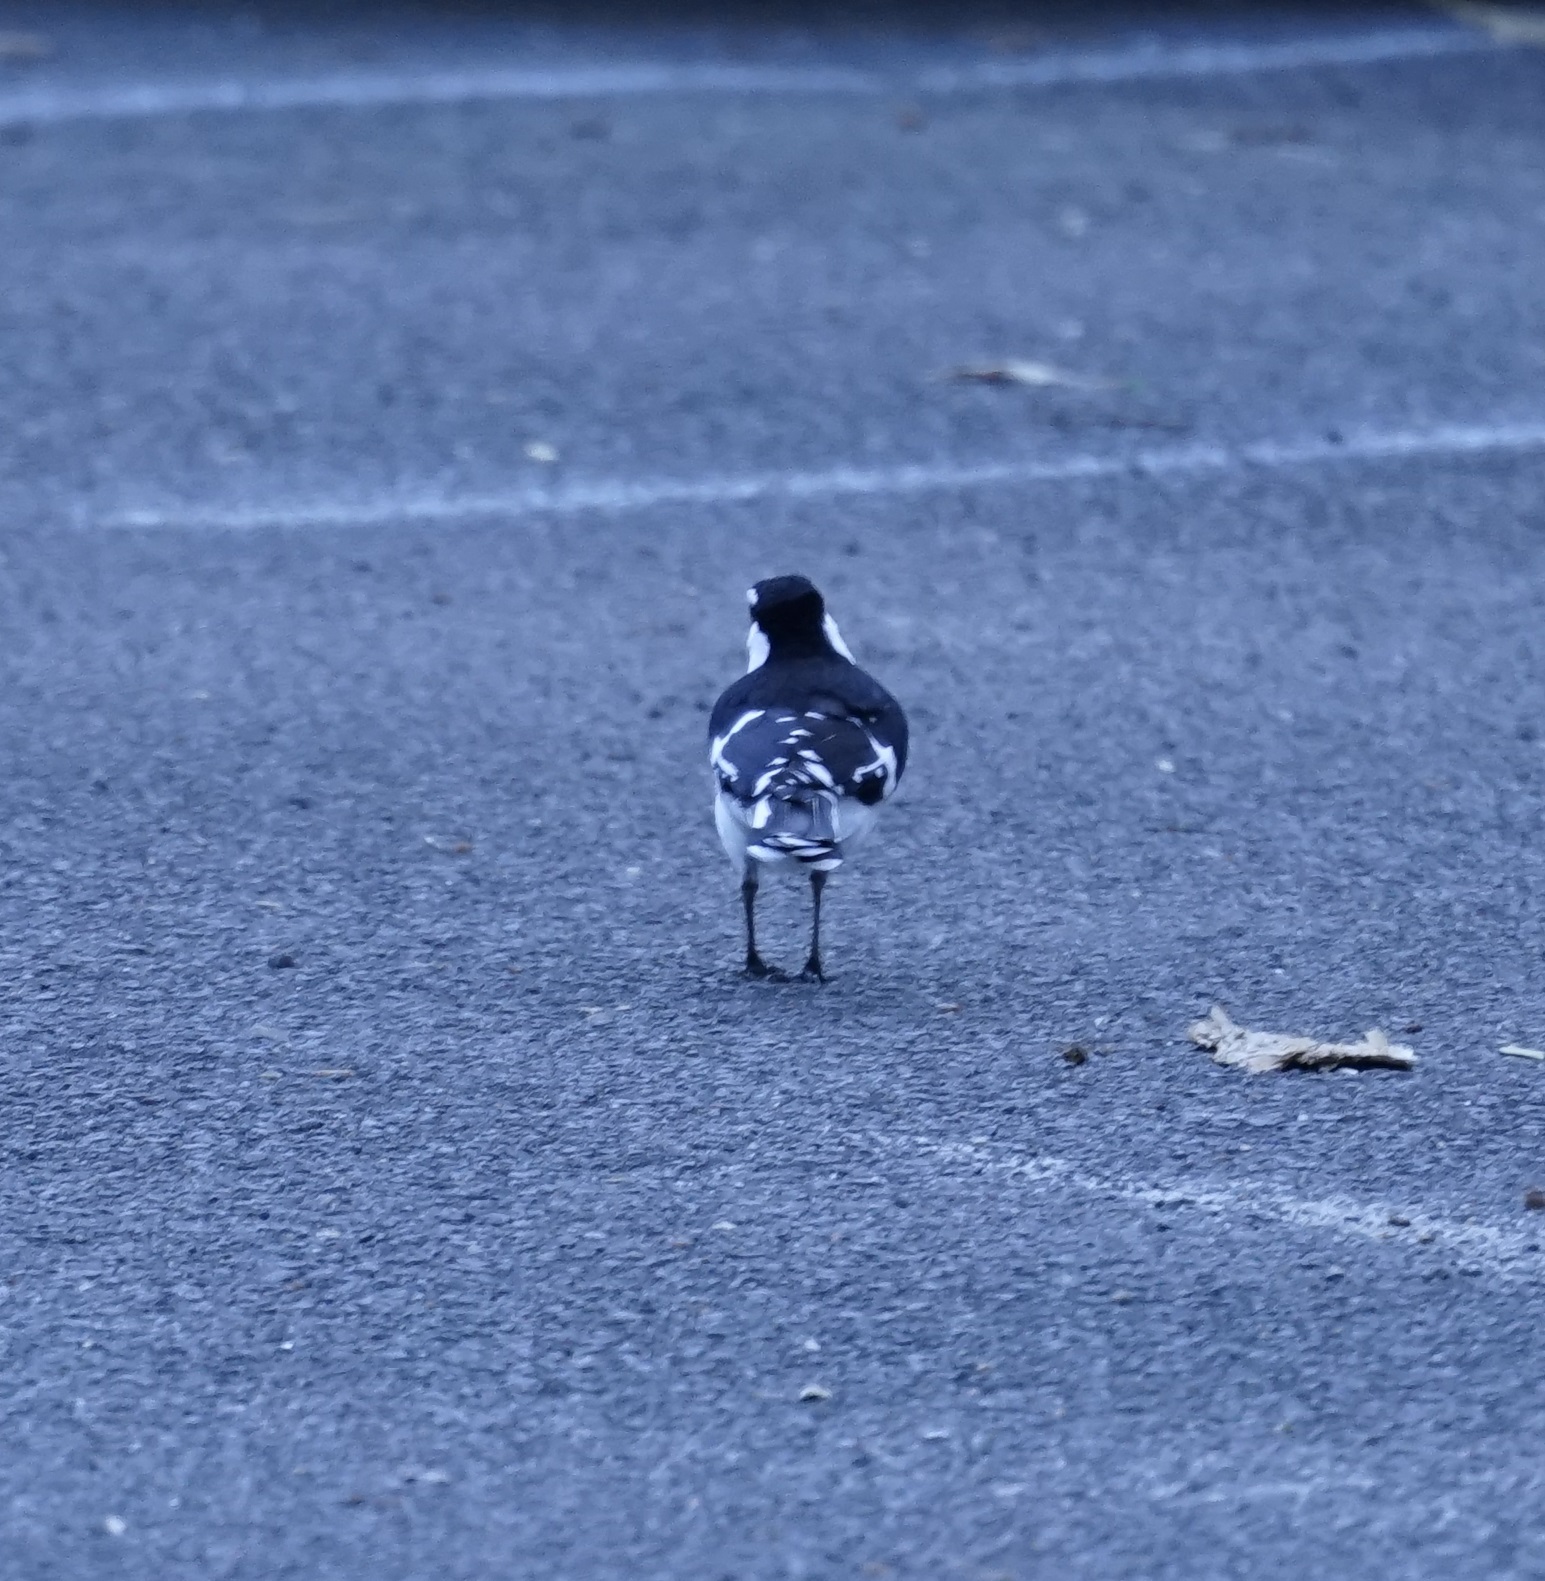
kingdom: Animalia
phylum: Chordata
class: Aves
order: Passeriformes
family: Monarchidae
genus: Grallina
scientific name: Grallina cyanoleuca
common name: Magpie-lark
